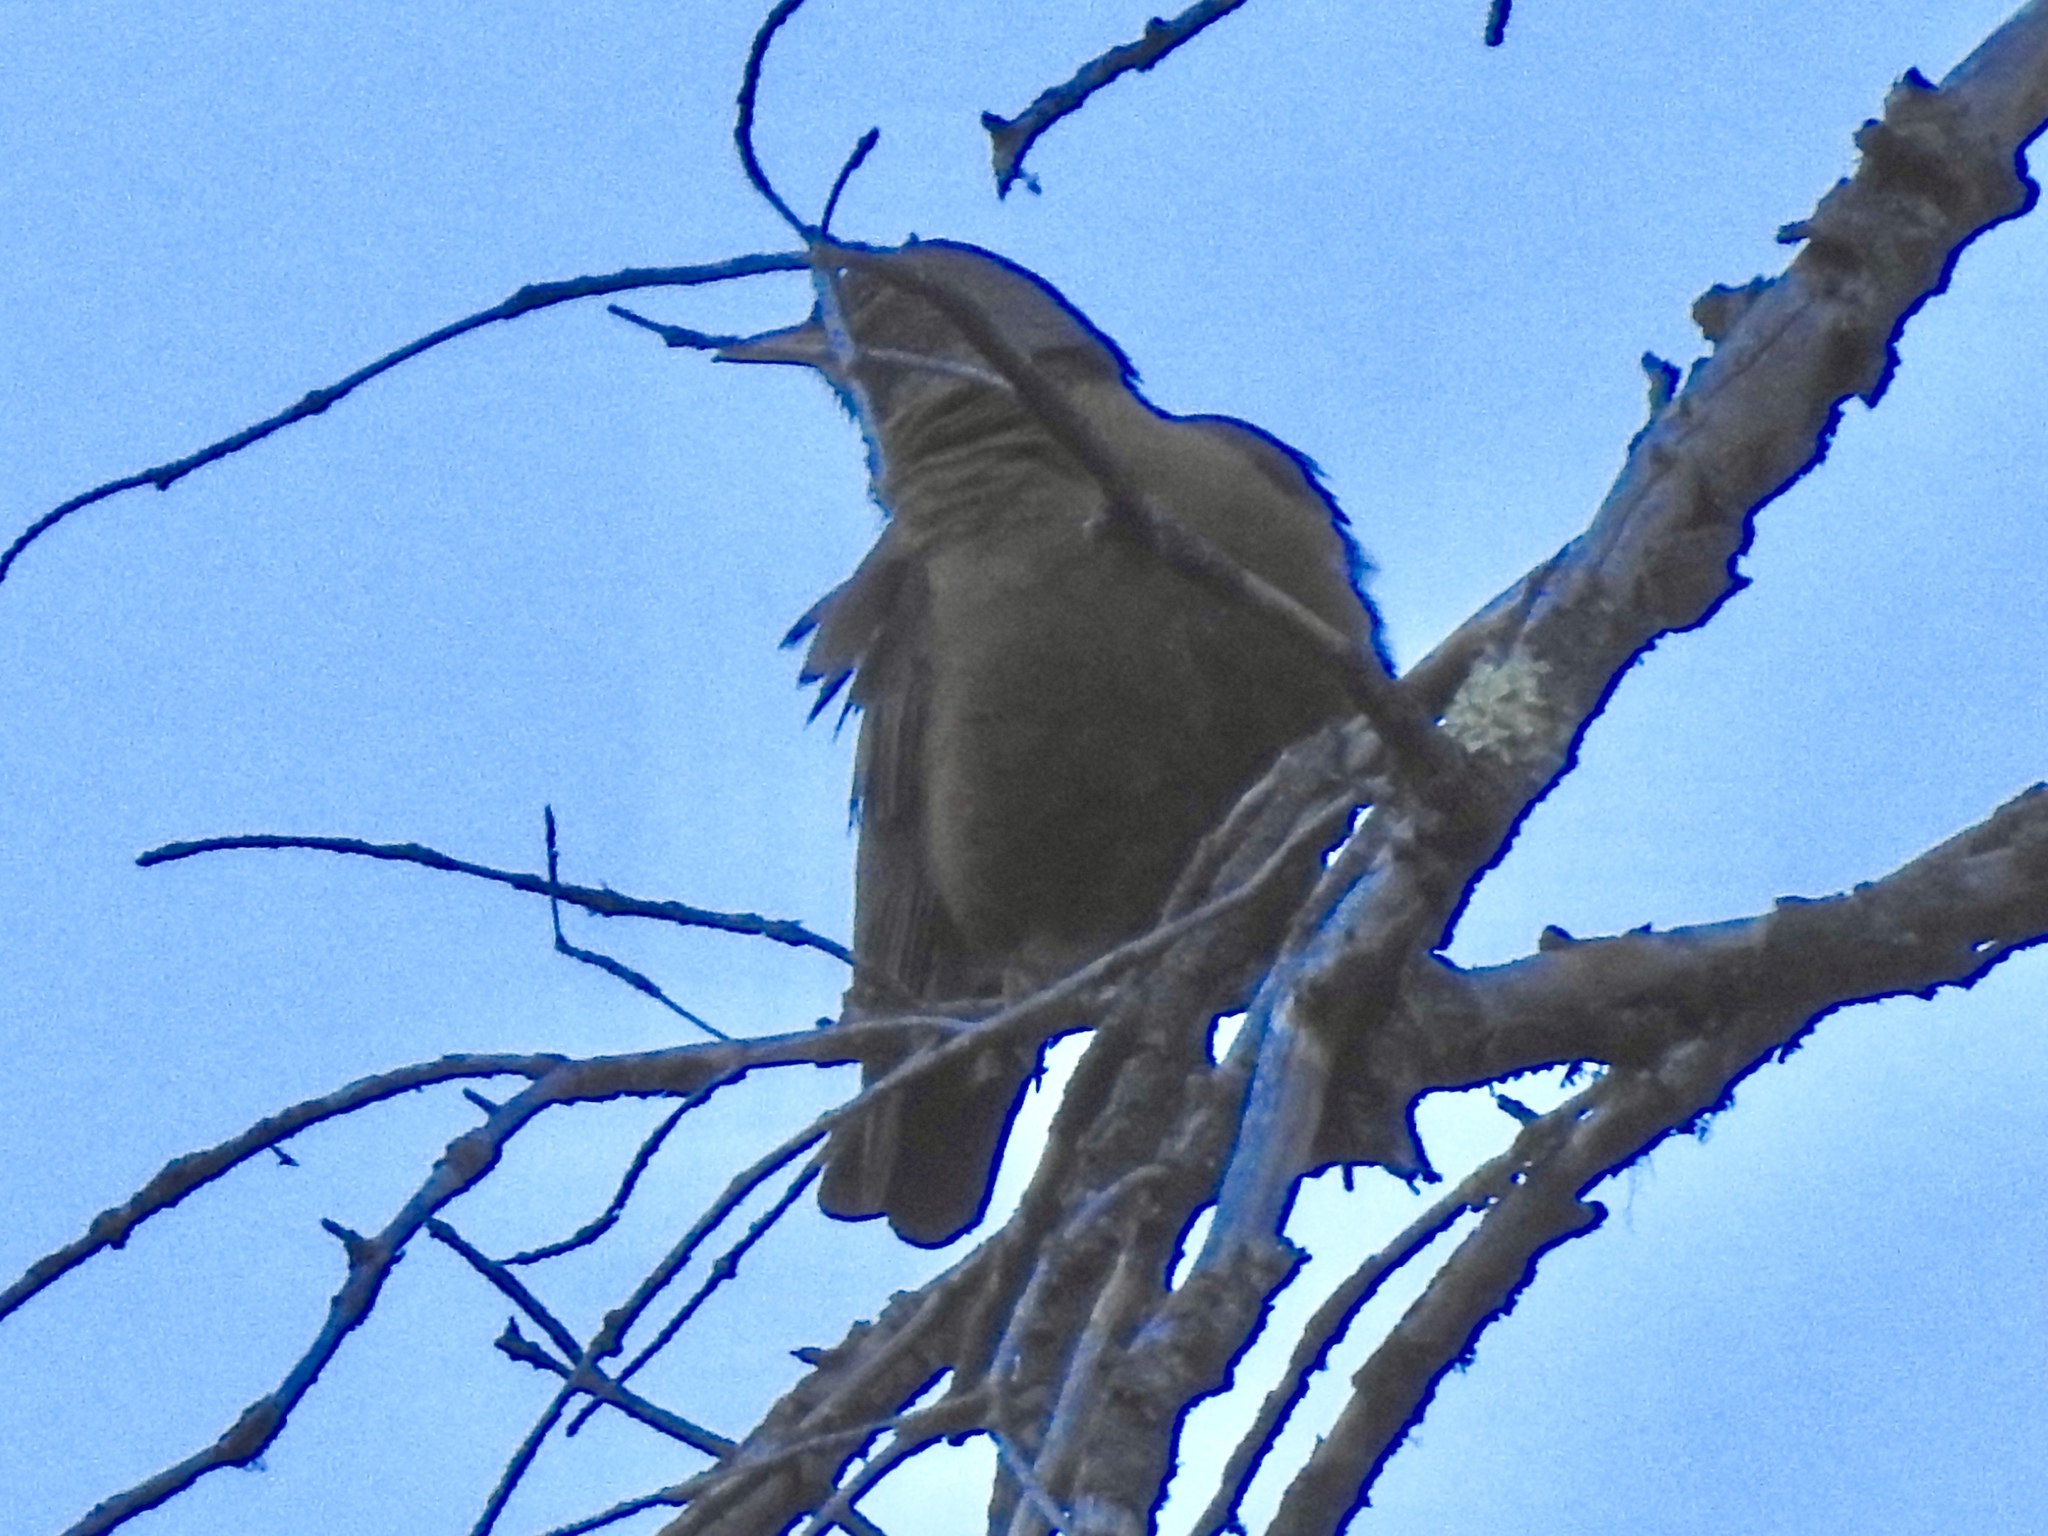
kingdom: Animalia
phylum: Chordata
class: Aves
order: Passeriformes
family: Turdidae
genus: Turdus
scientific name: Turdus migratorius
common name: American robin
